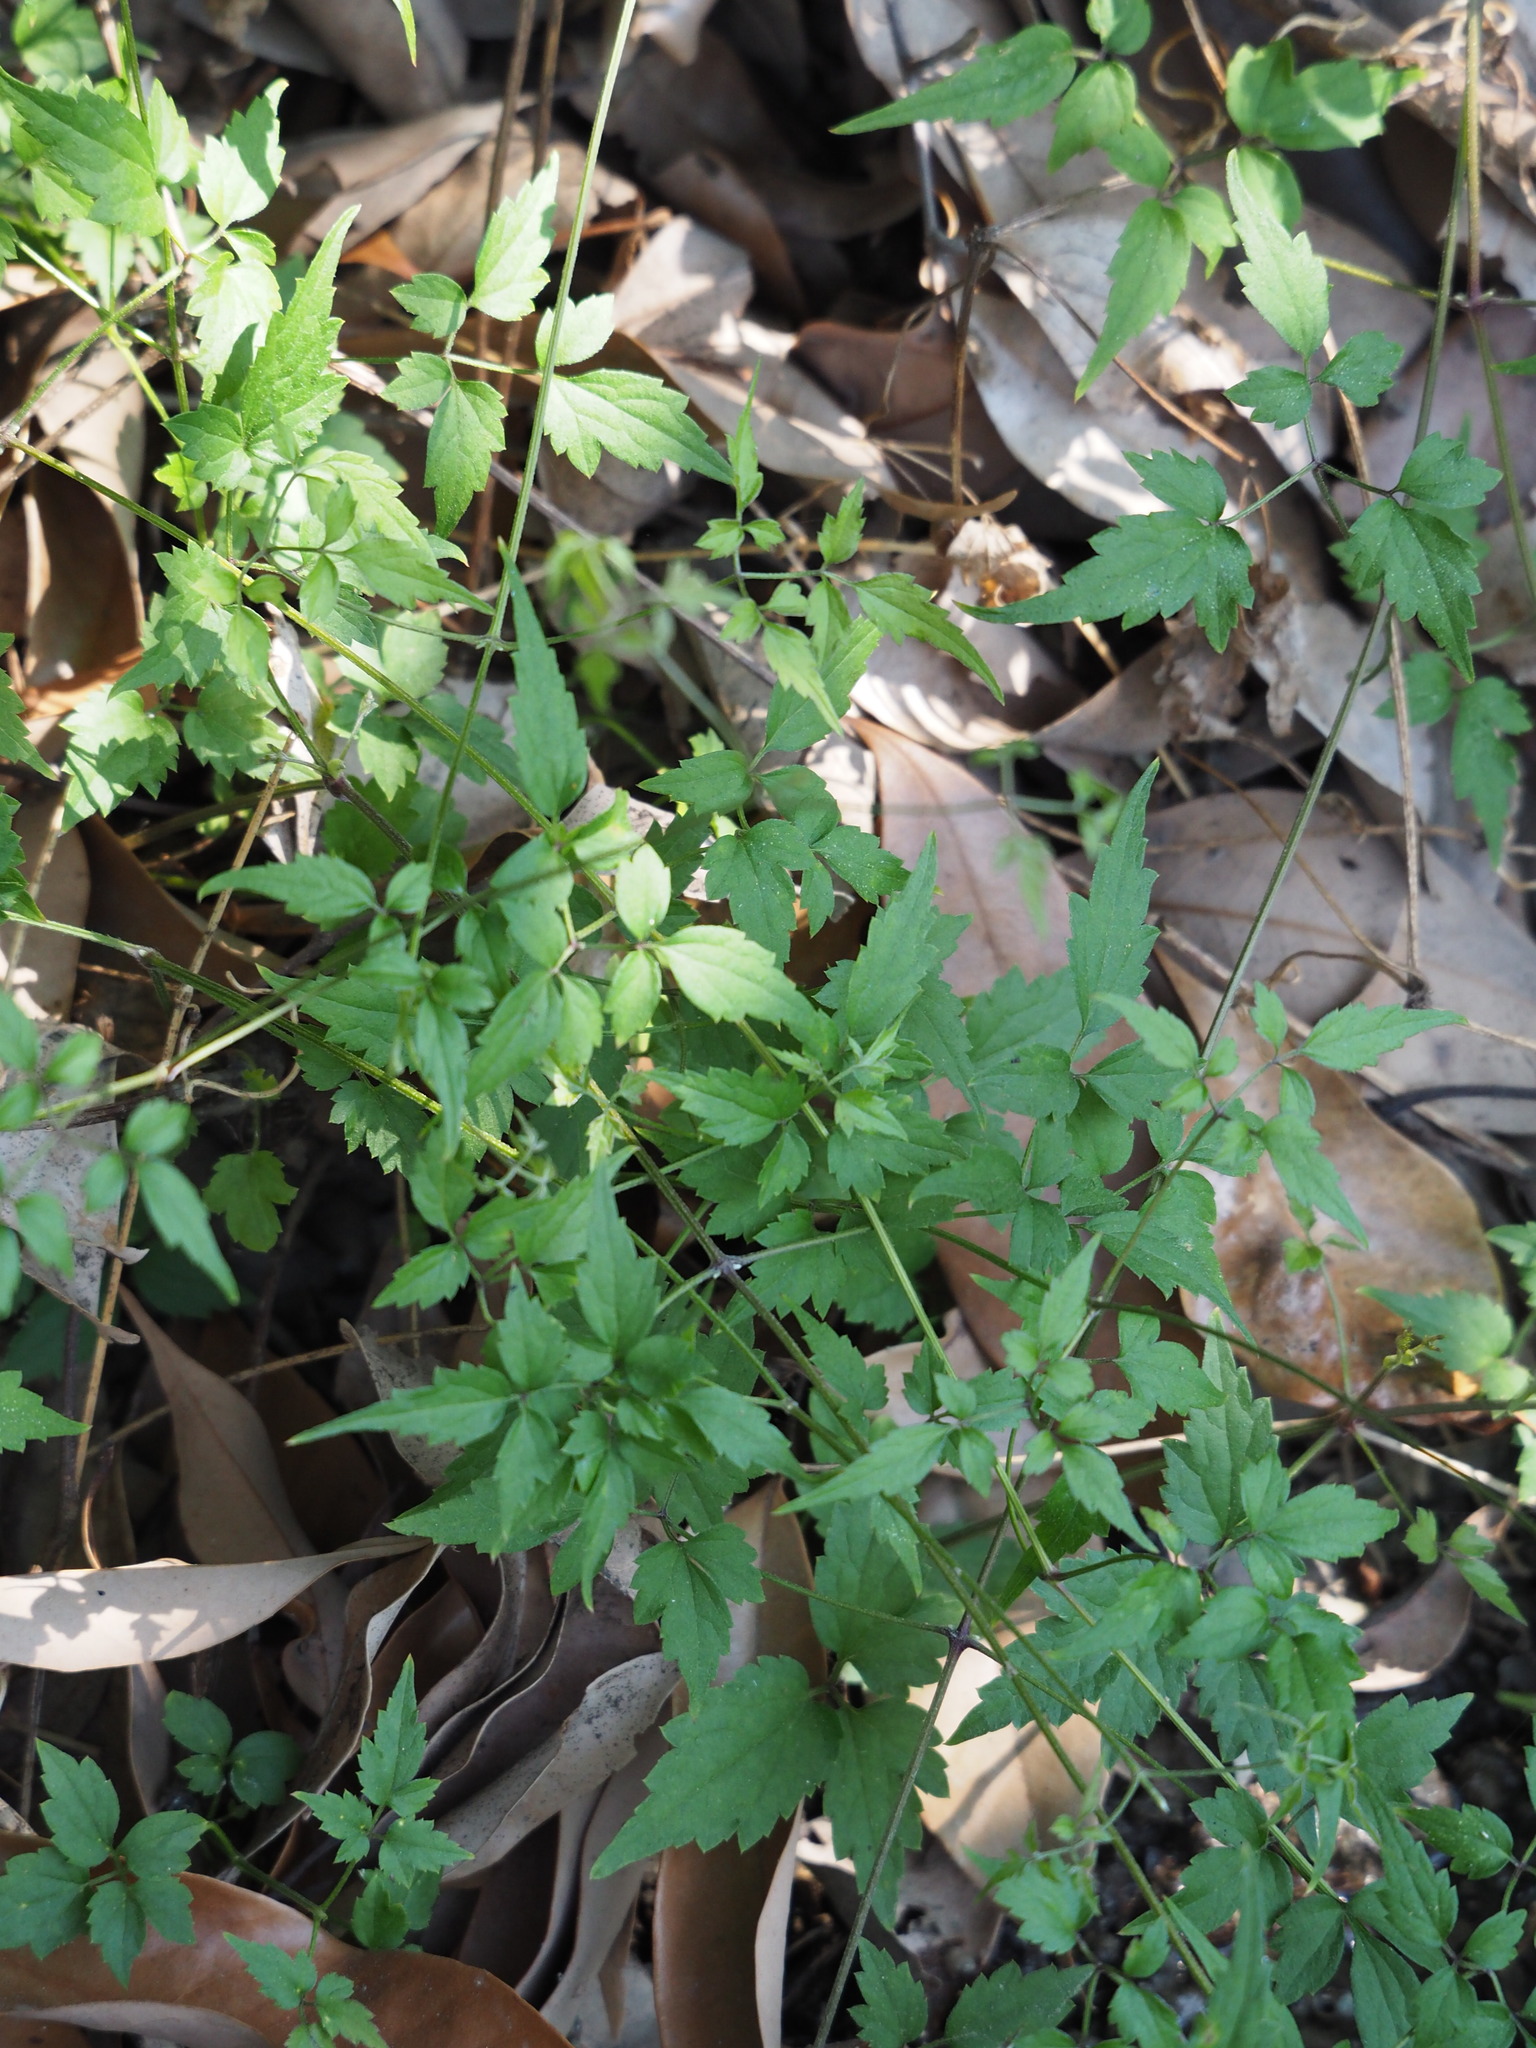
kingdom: Plantae
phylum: Tracheophyta
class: Magnoliopsida
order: Ranunculales
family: Ranunculaceae
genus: Clematis
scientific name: Clematis grata
